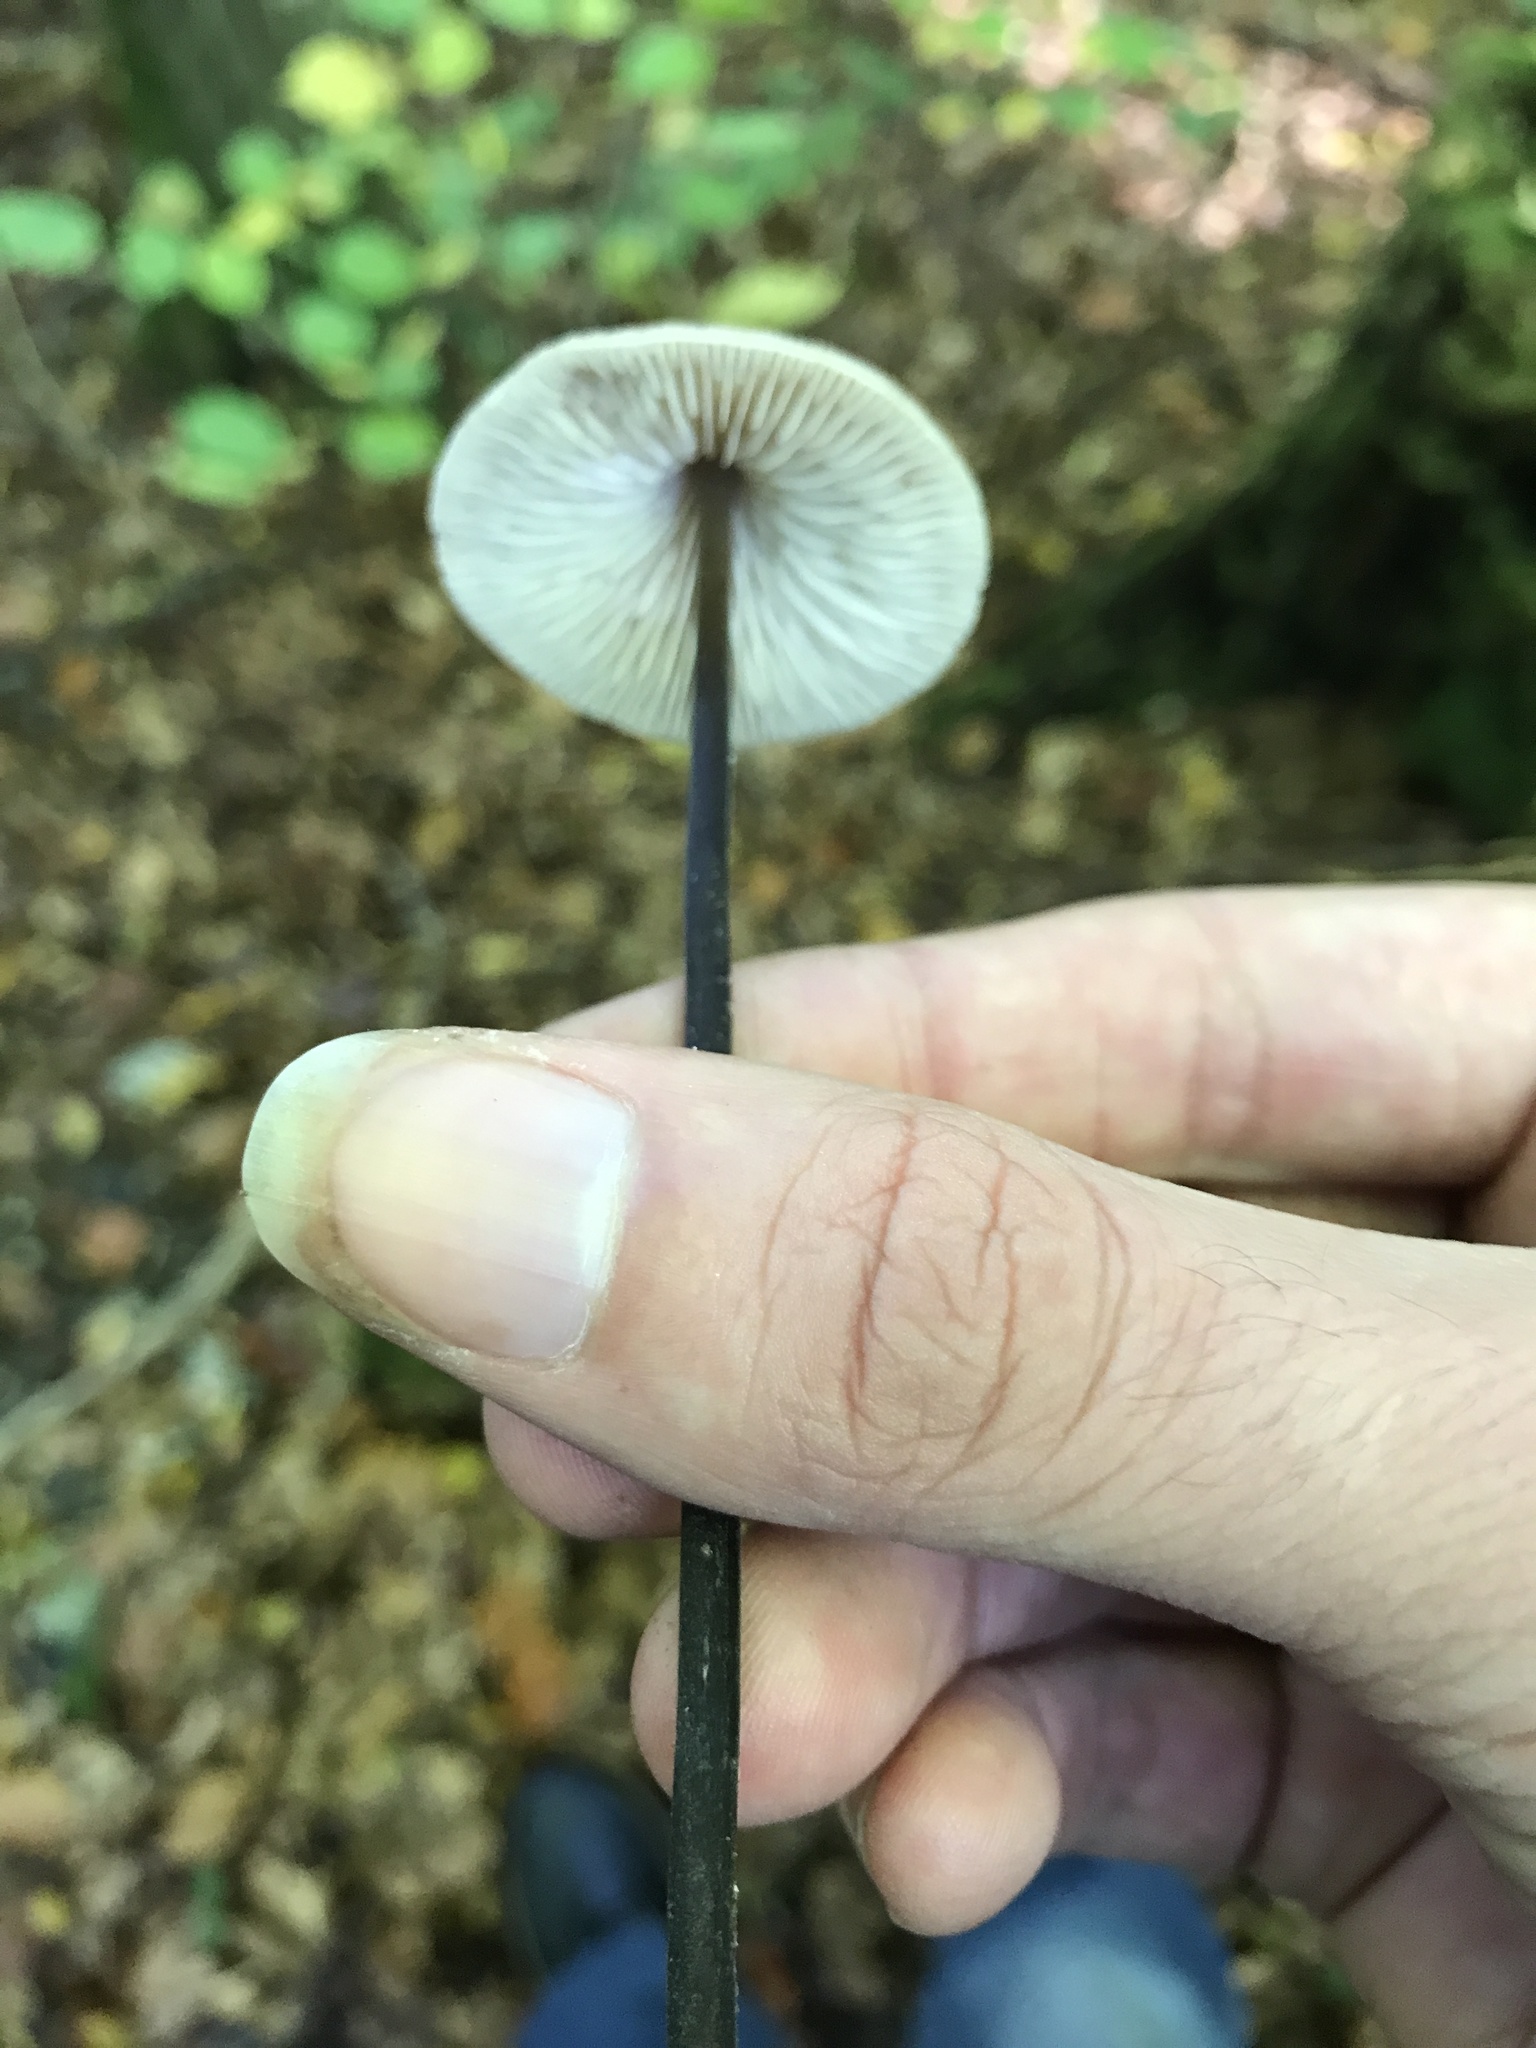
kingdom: Fungi
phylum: Basidiomycota
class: Agaricomycetes
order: Agaricales
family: Omphalotaceae
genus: Mycetinis
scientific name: Mycetinis alliaceus
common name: Garlic parachute
